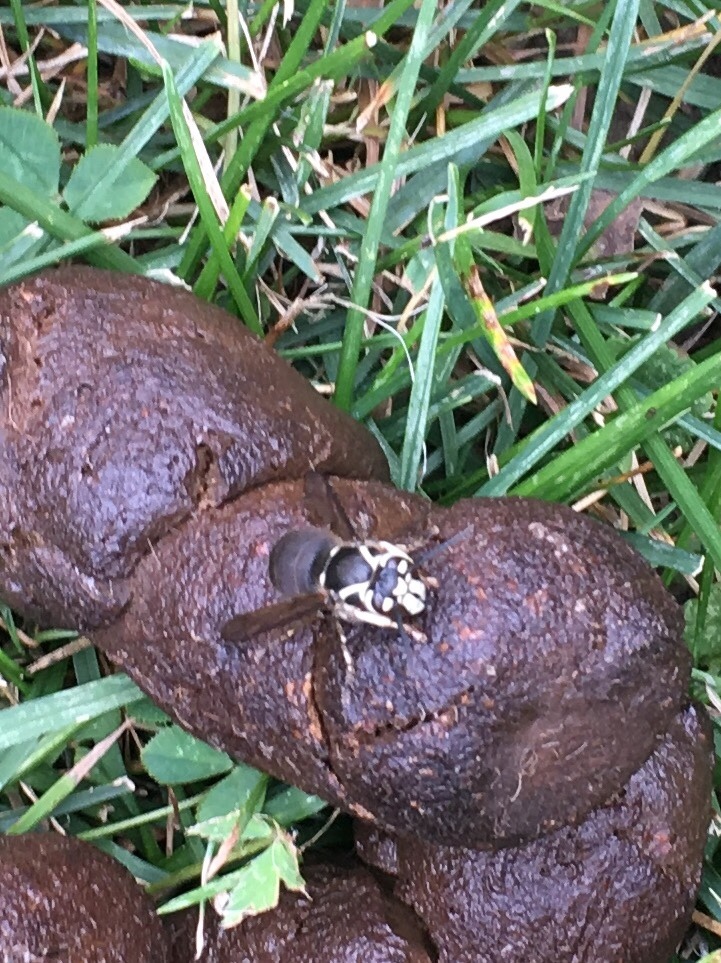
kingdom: Animalia
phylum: Arthropoda
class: Insecta
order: Hymenoptera
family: Vespidae
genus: Dolichovespula
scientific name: Dolichovespula maculata
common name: Bald-faced hornet
